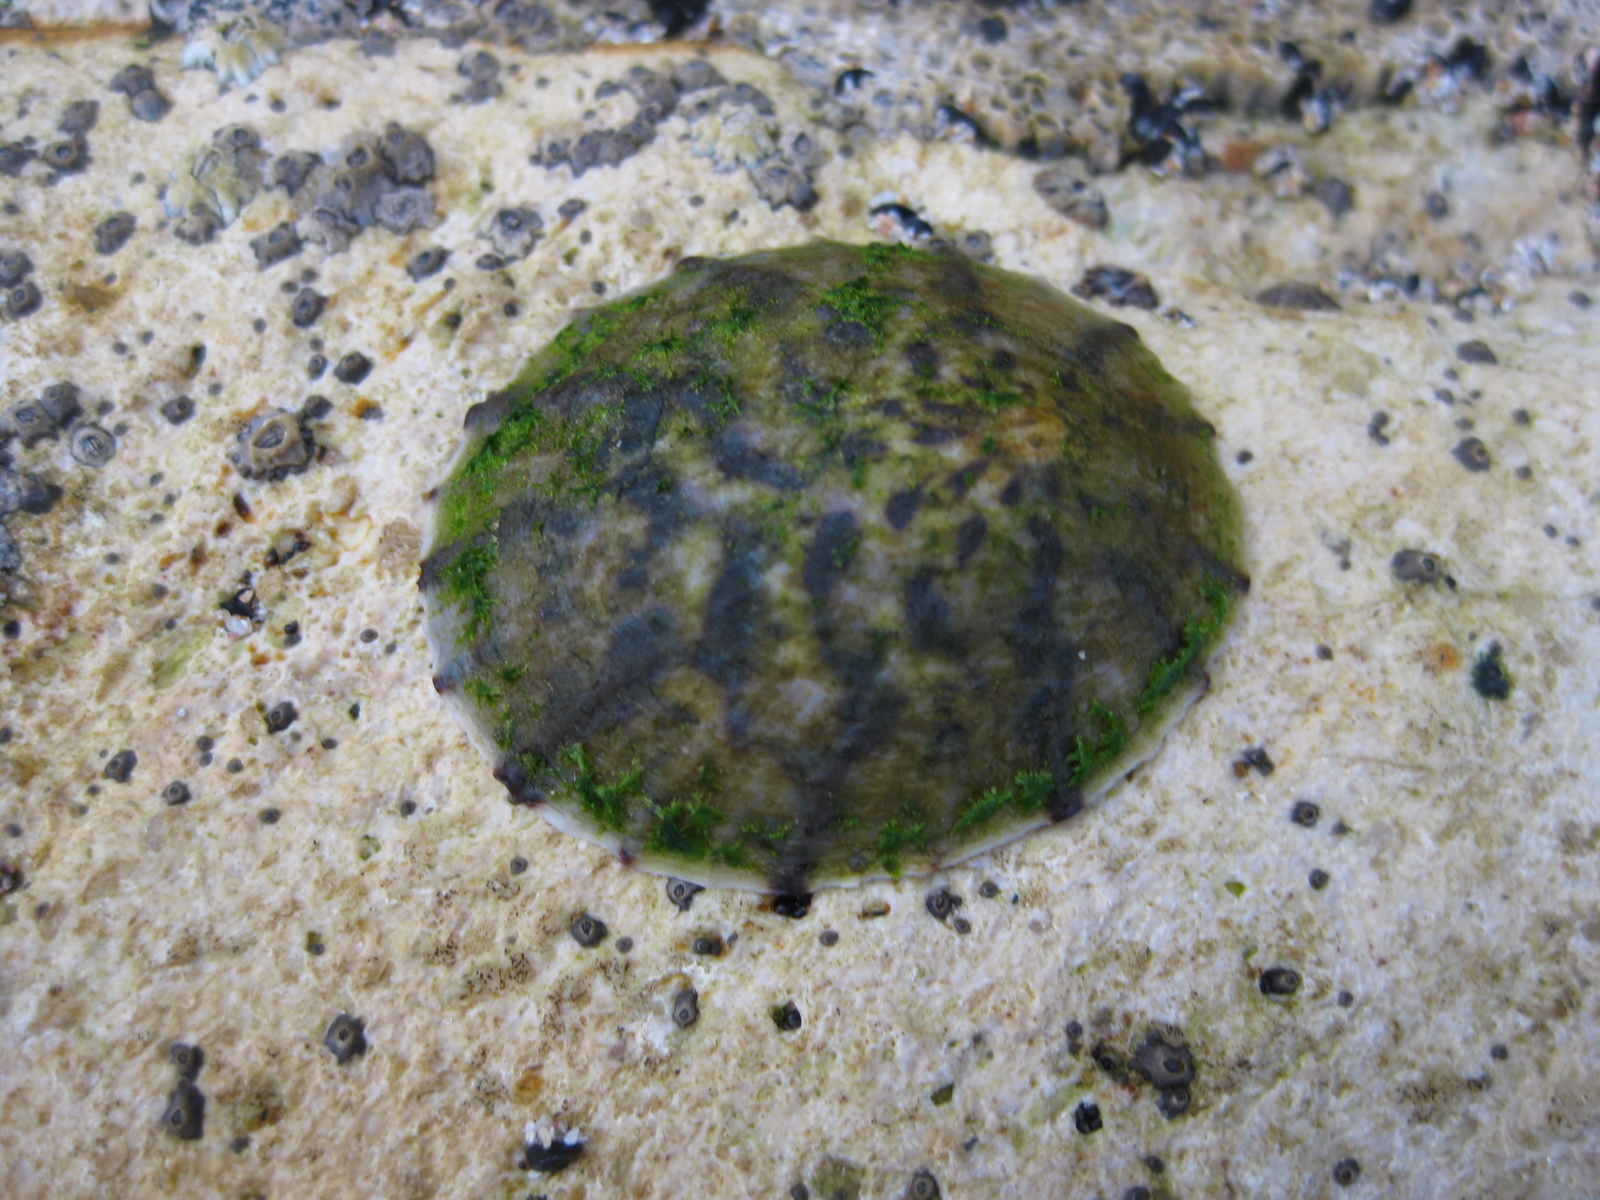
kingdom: Animalia
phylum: Mollusca
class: Gastropoda
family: Nacellidae
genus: Cellana
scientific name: Cellana radians
